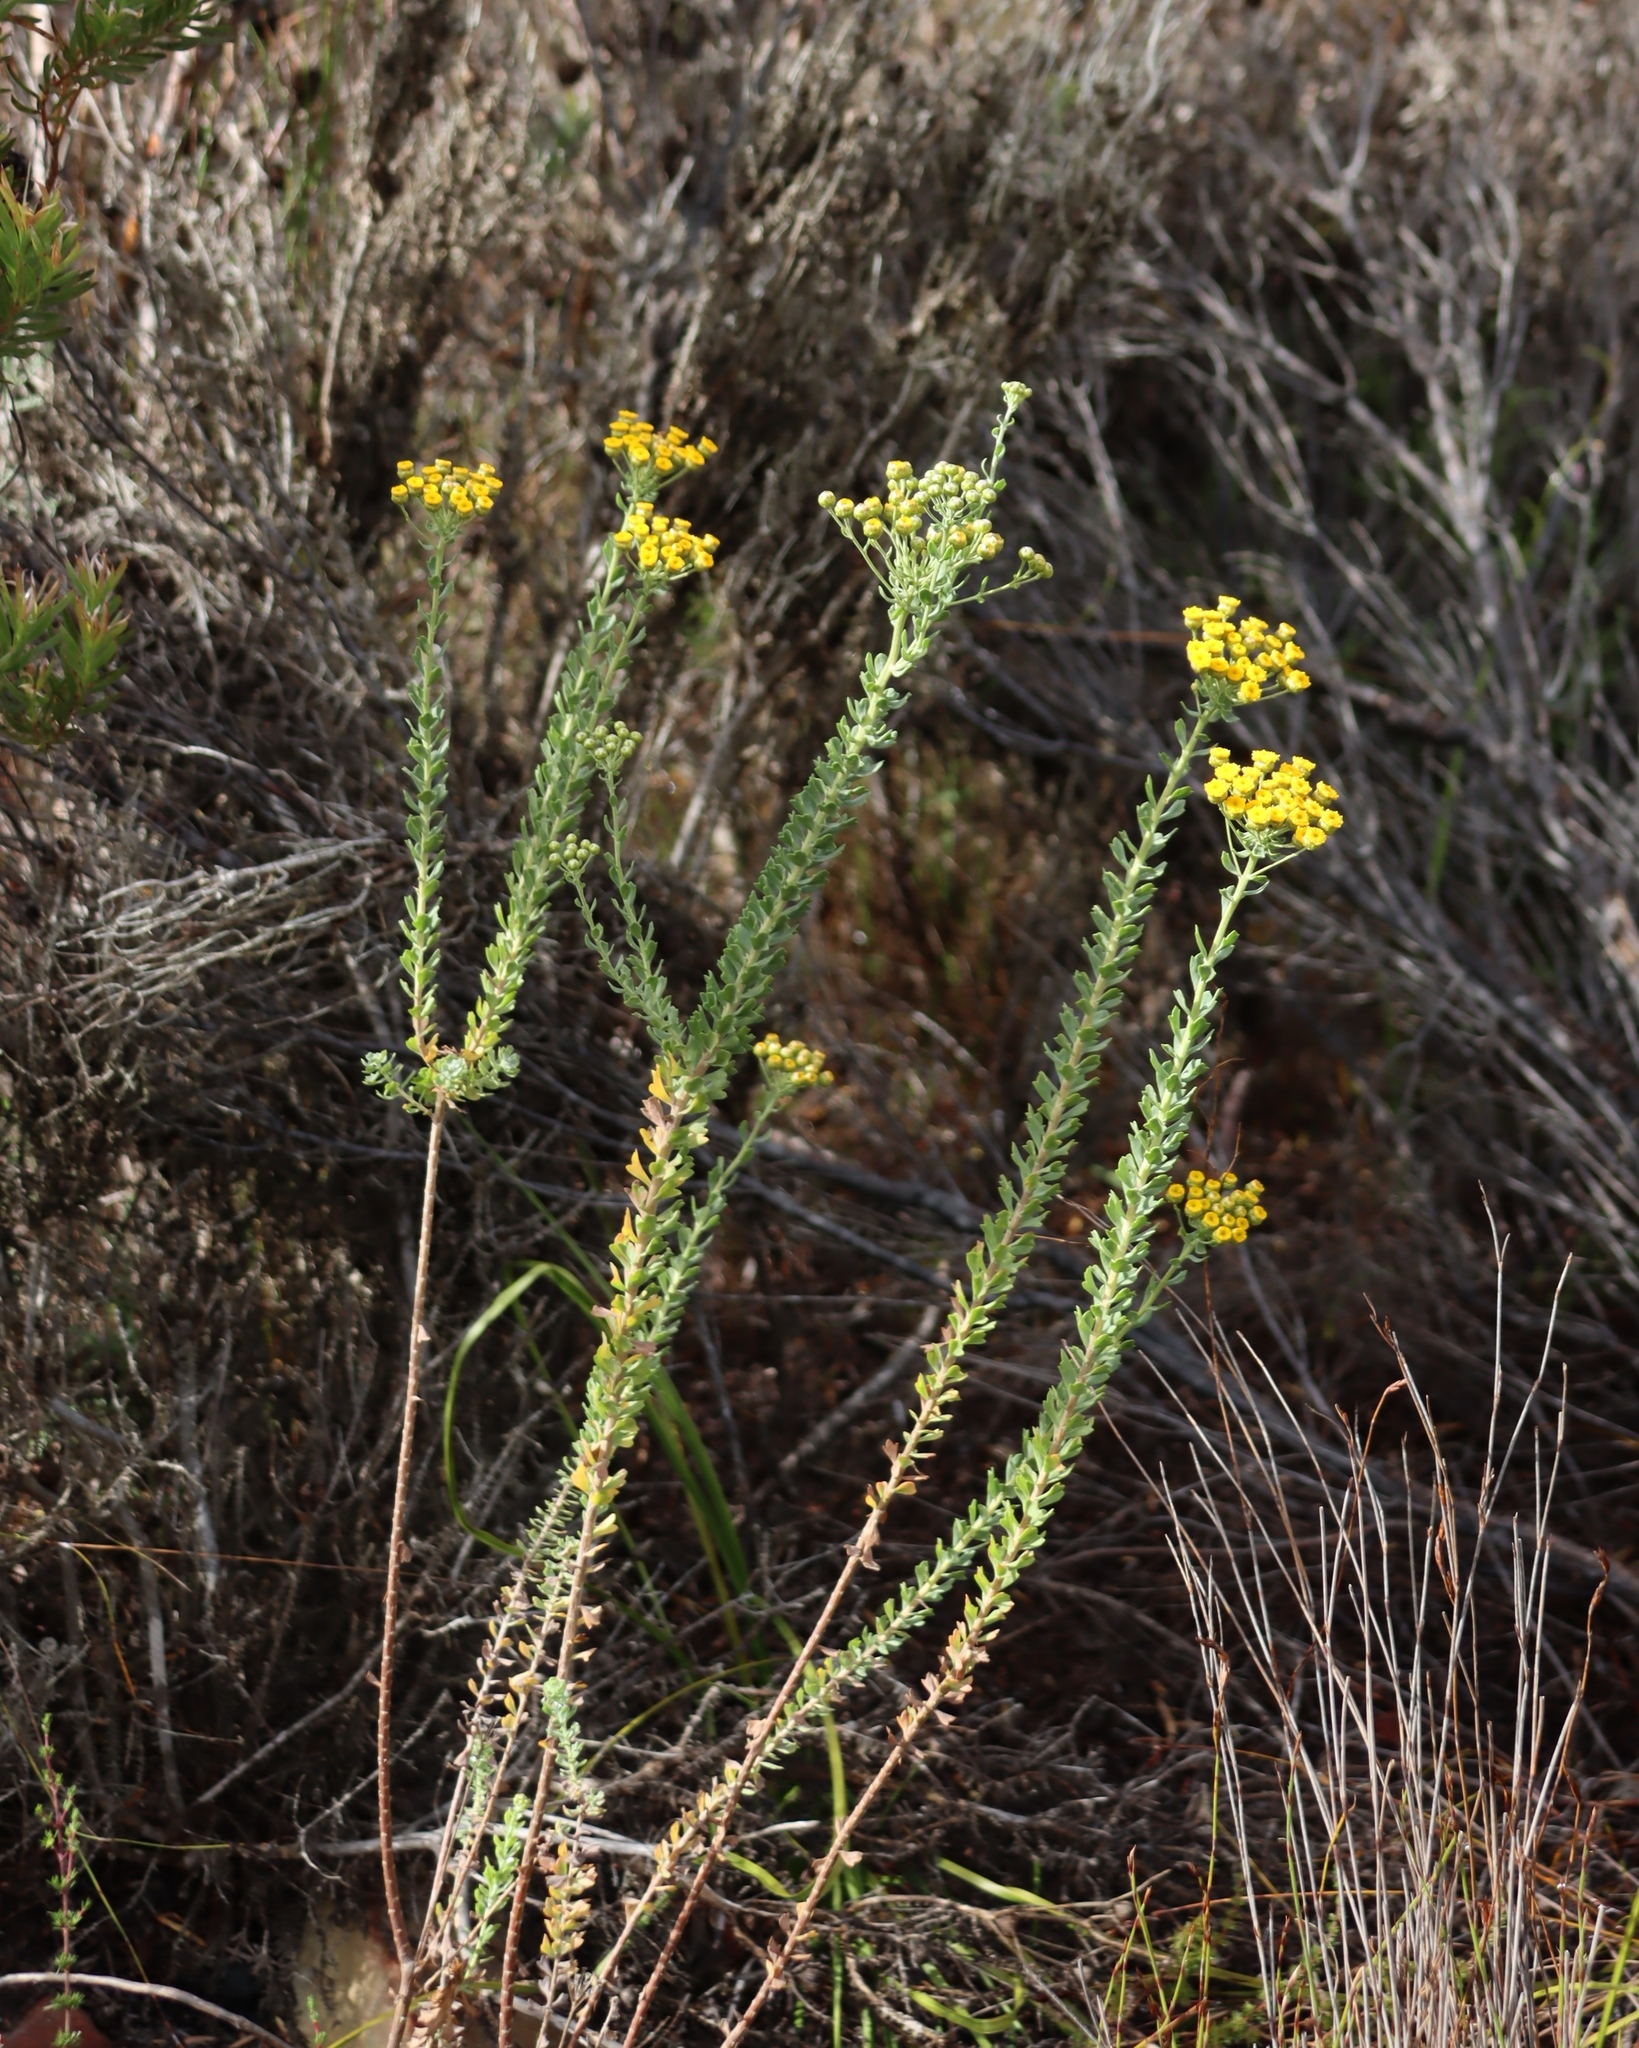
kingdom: Plantae
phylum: Tracheophyta
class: Magnoliopsida
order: Asterales
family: Asteraceae
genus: Athanasia
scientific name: Athanasia trifurcata
